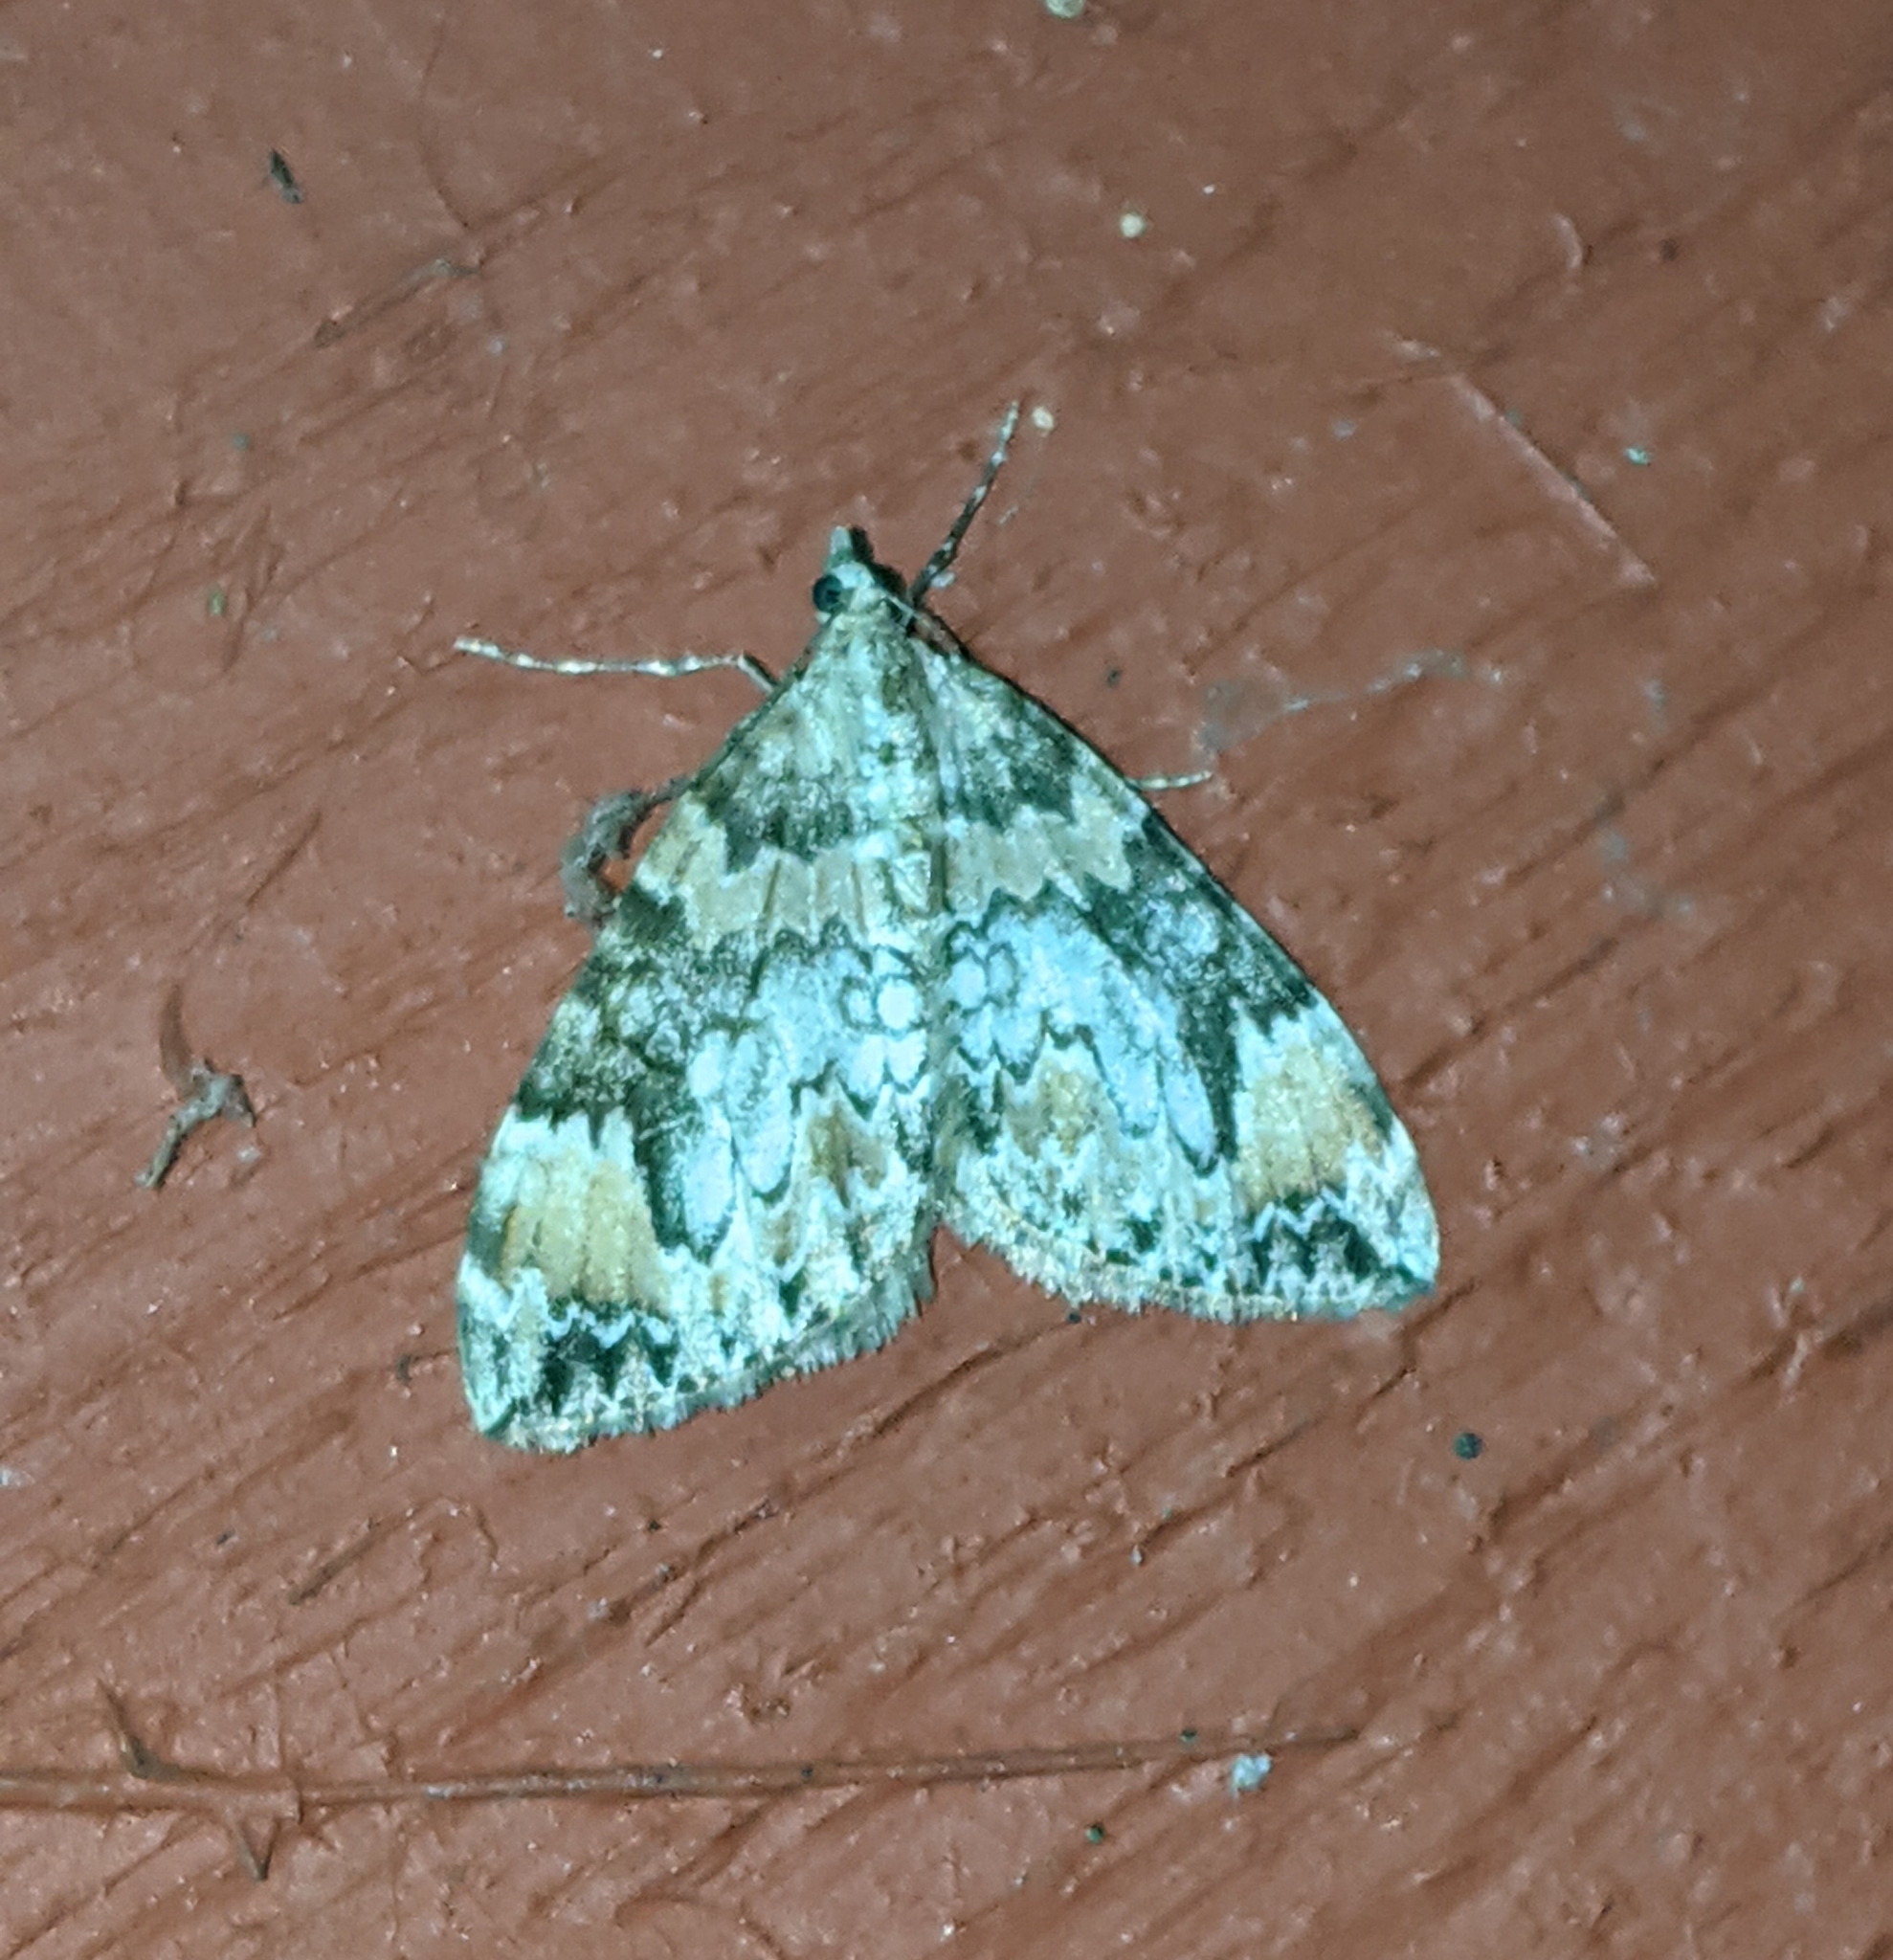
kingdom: Animalia
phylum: Arthropoda
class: Insecta
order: Lepidoptera
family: Geometridae
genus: Dysstroma
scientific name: Dysstroma citrata
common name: Dark marbled carpet
